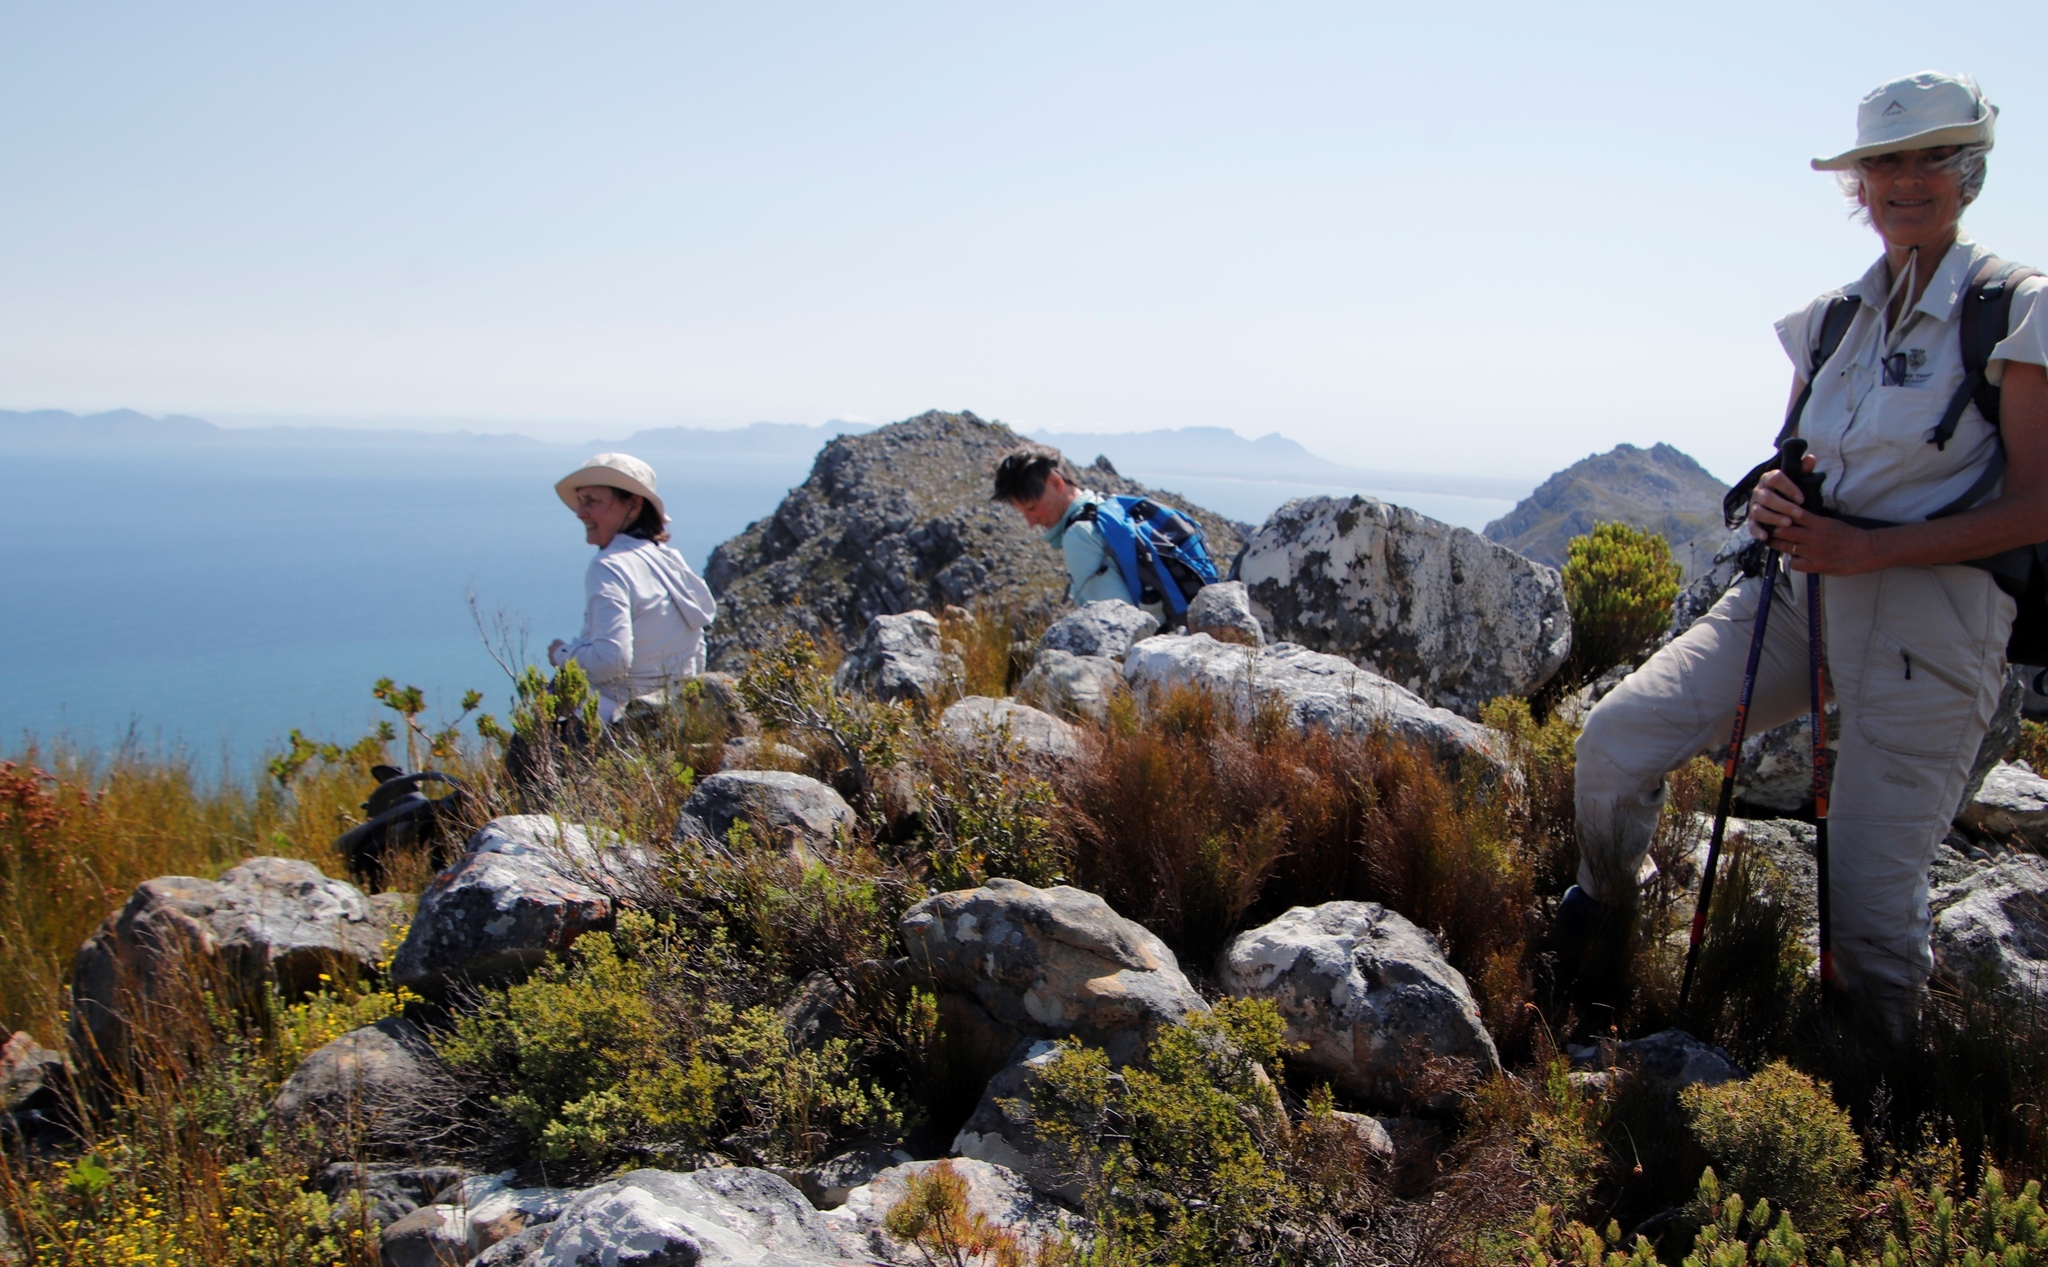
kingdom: Plantae
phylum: Tracheophyta
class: Magnoliopsida
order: Sapindales
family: Anacardiaceae
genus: Searsia
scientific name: Searsia scytophylla
